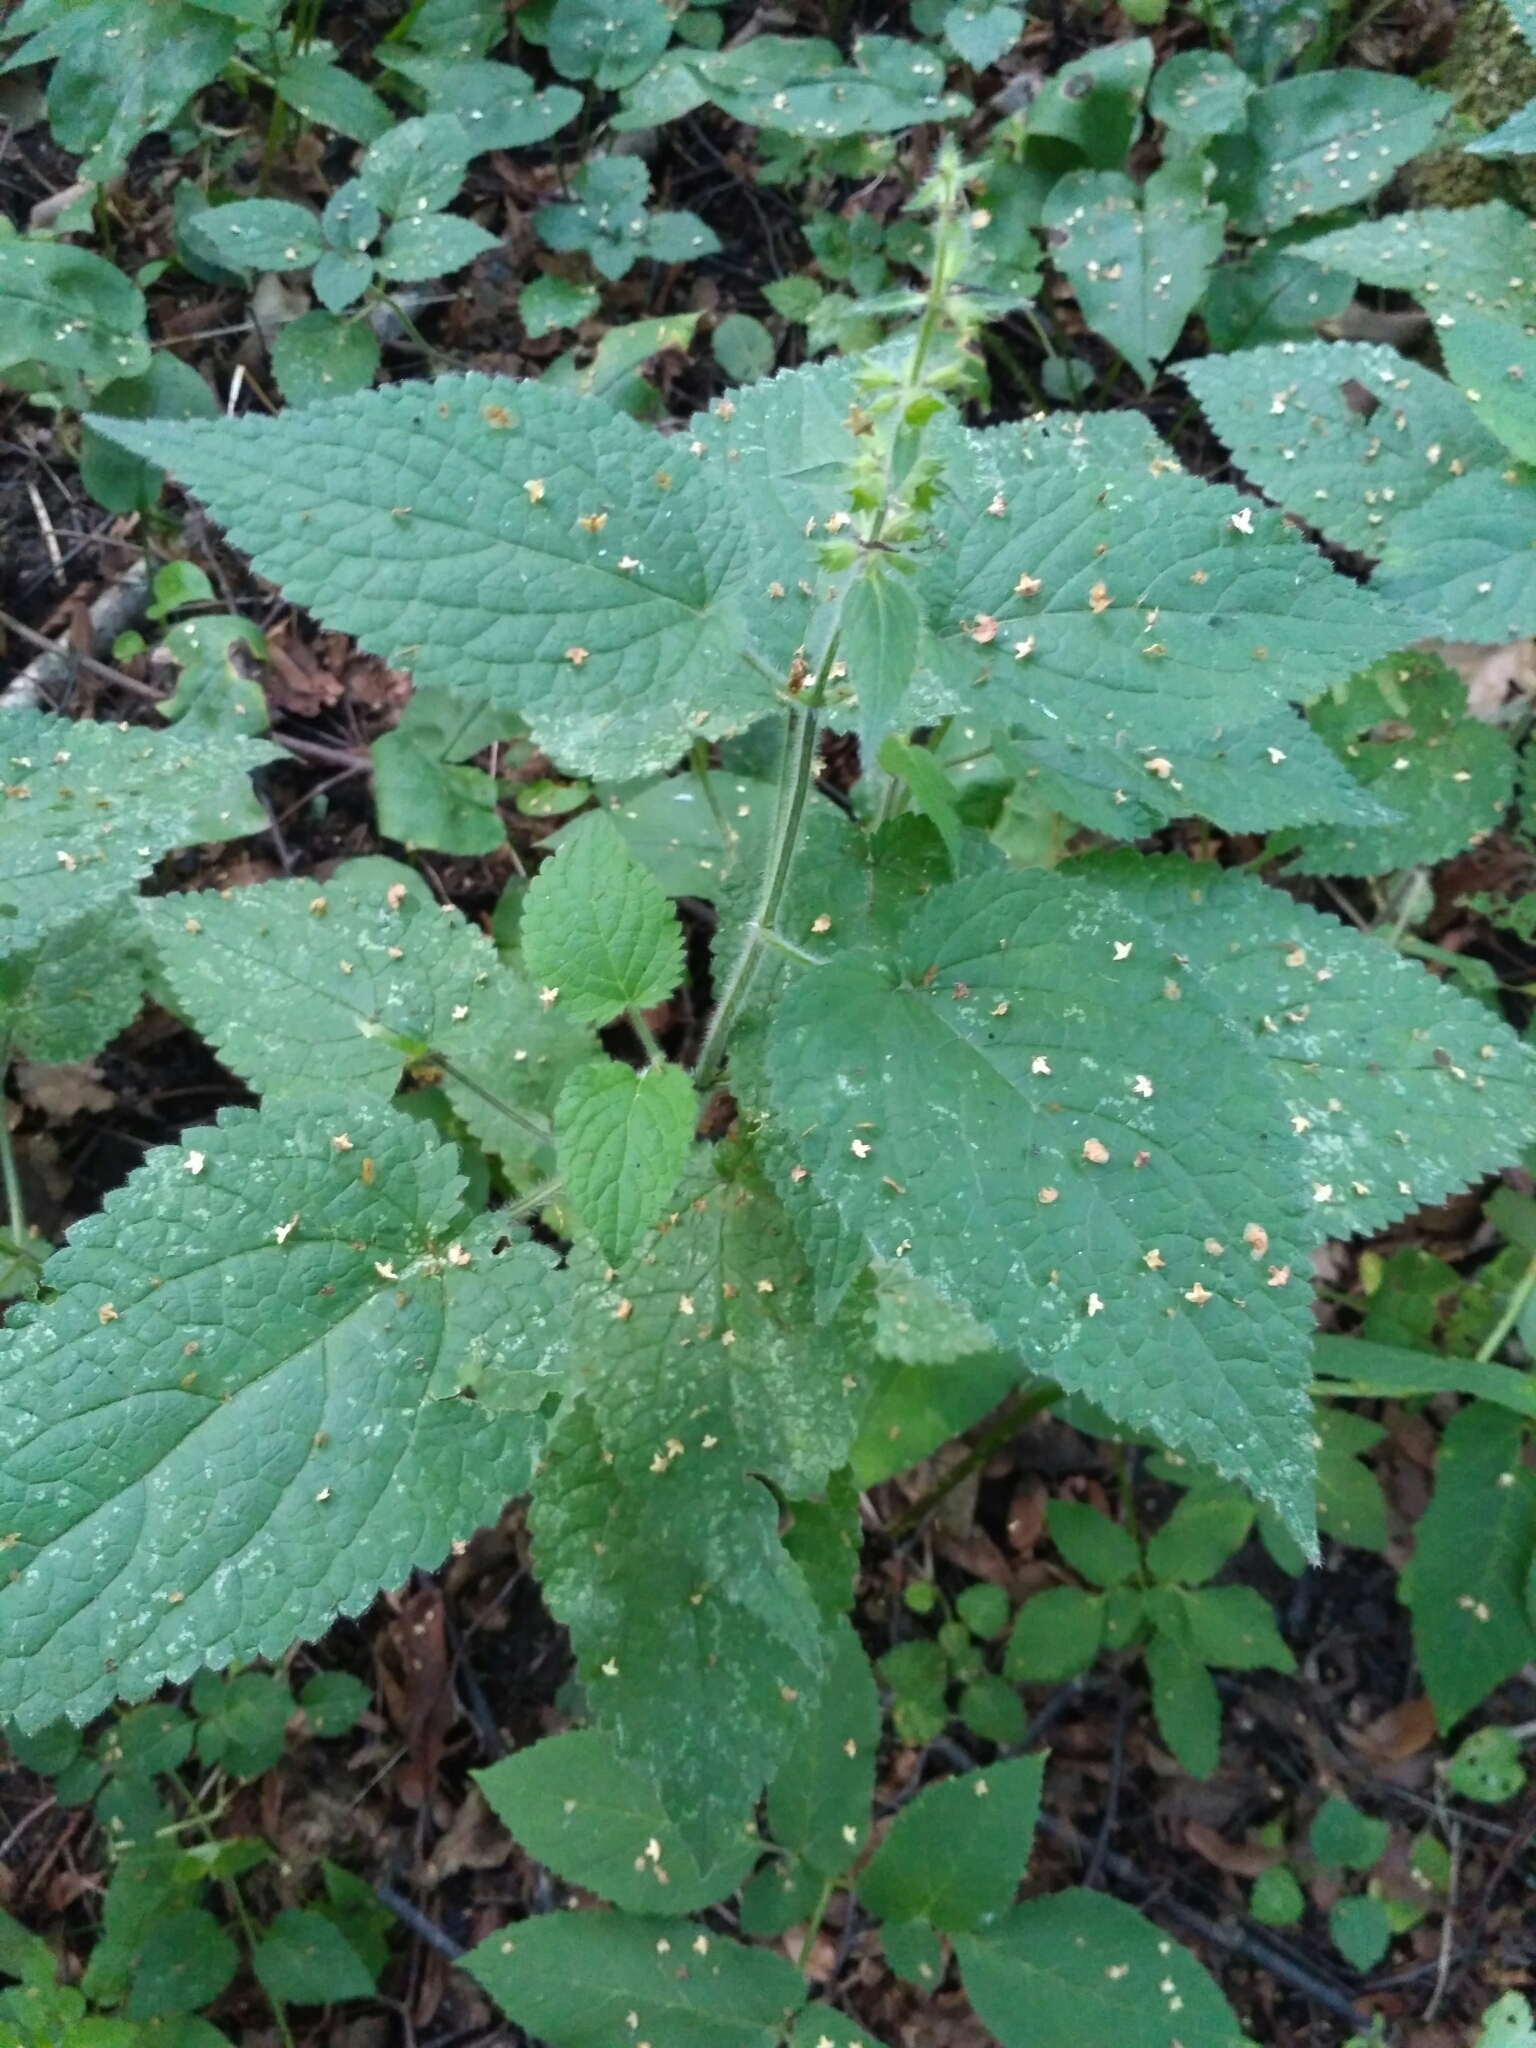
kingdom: Plantae
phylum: Tracheophyta
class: Magnoliopsida
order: Lamiales
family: Lamiaceae
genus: Stachys
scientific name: Stachys sylvatica
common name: Hedge woundwort
